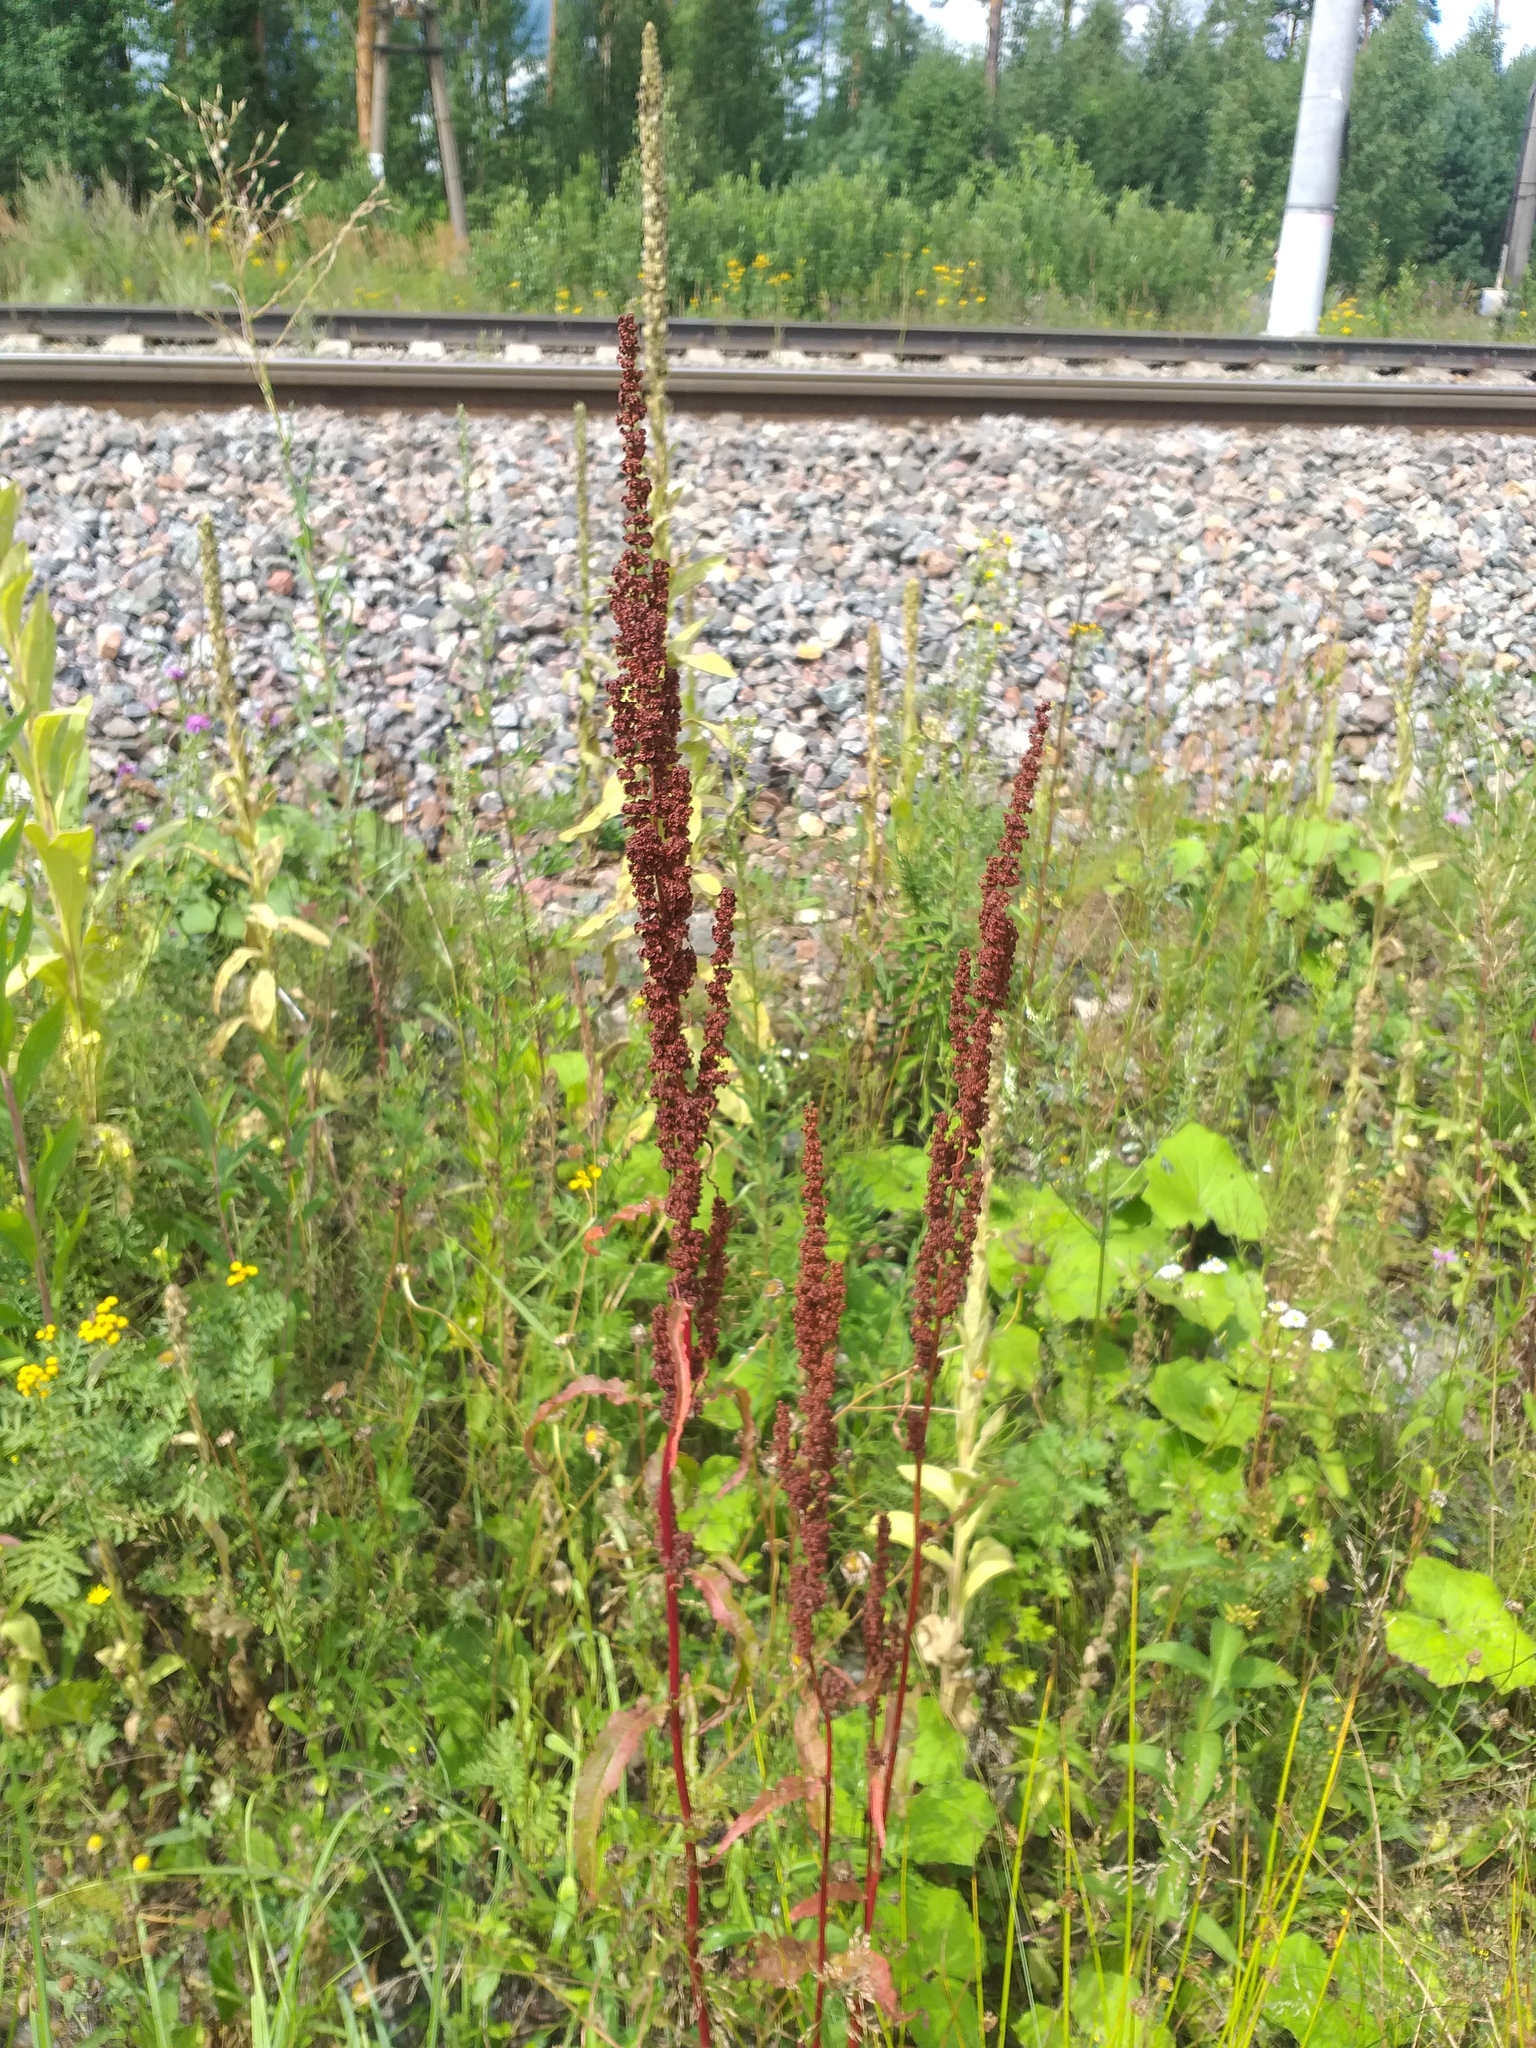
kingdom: Plantae
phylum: Tracheophyta
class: Magnoliopsida
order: Caryophyllales
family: Polygonaceae
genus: Rumex
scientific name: Rumex crispus
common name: Curled dock
